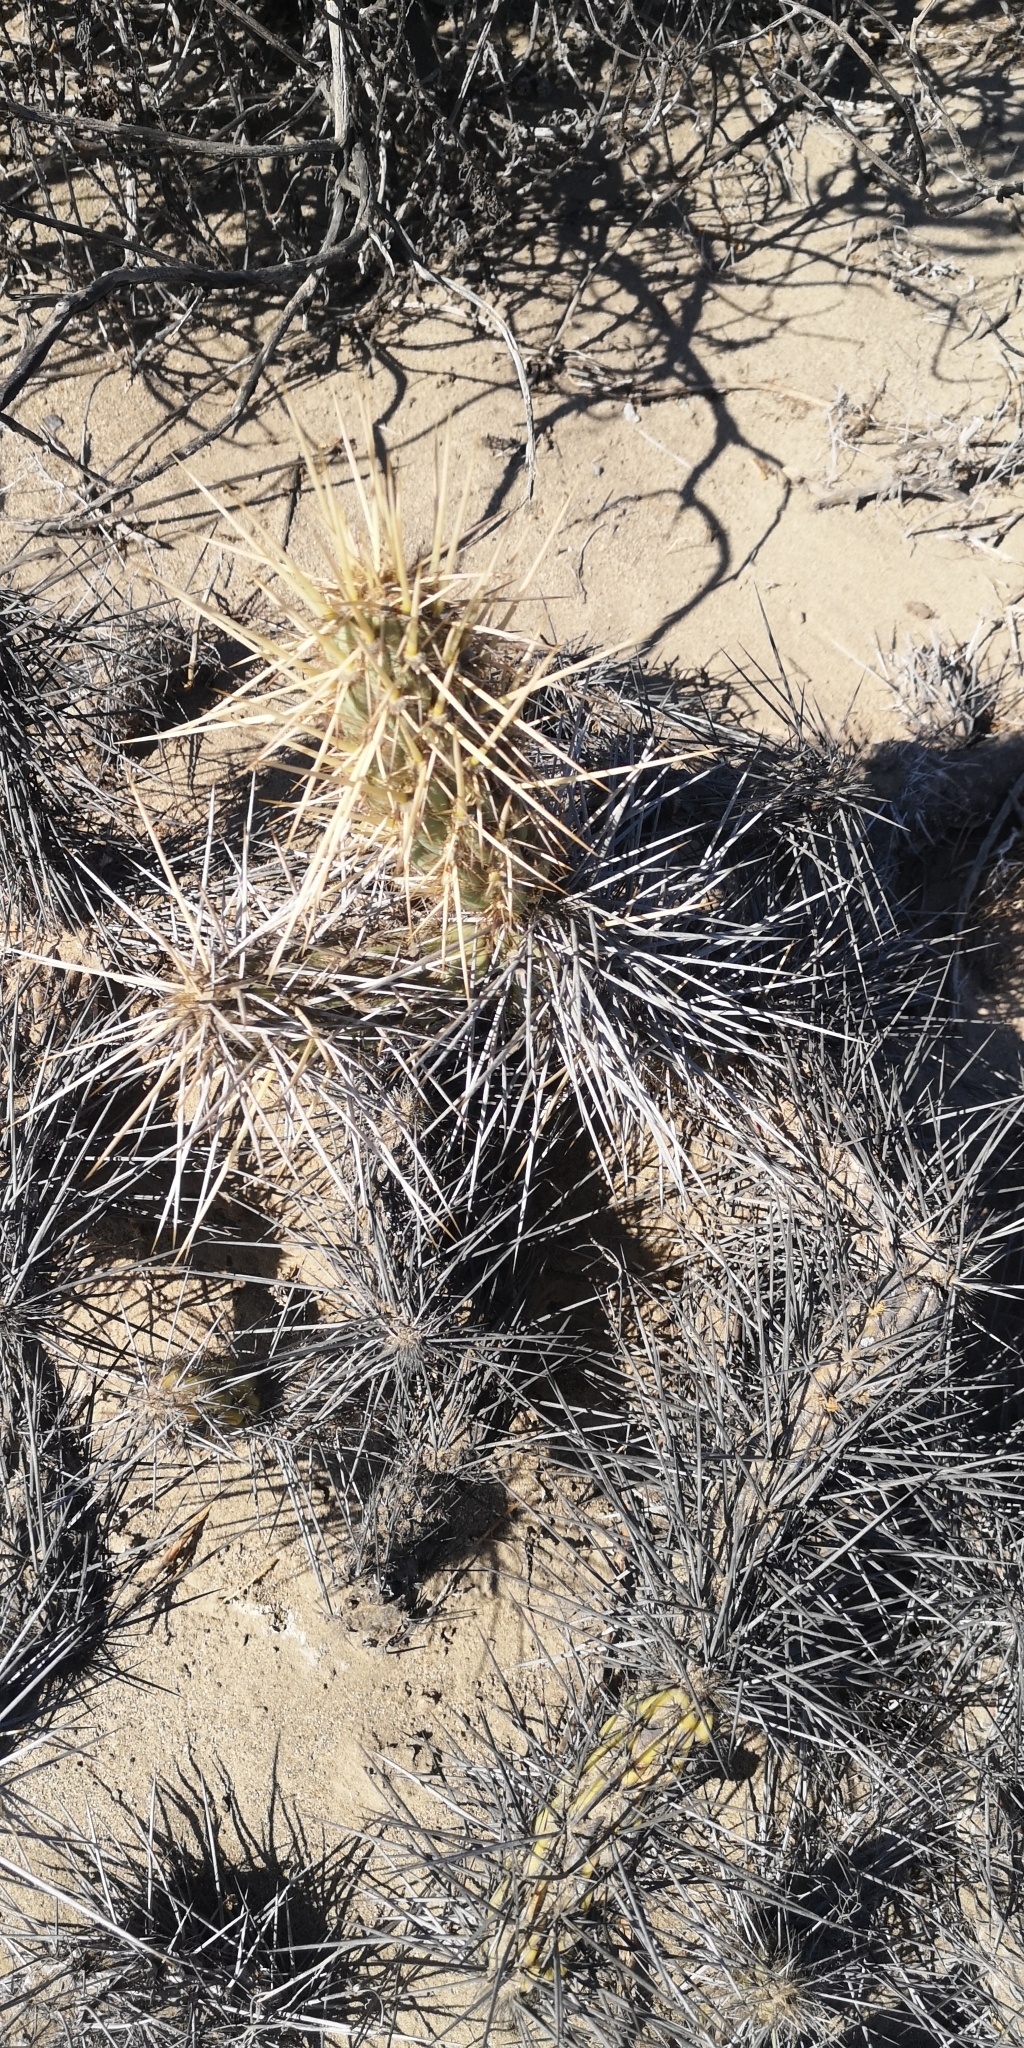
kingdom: Plantae
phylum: Tracheophyta
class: Magnoliopsida
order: Caryophyllales
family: Cactaceae
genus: Miqueliopuntia
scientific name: Miqueliopuntia miquelii
